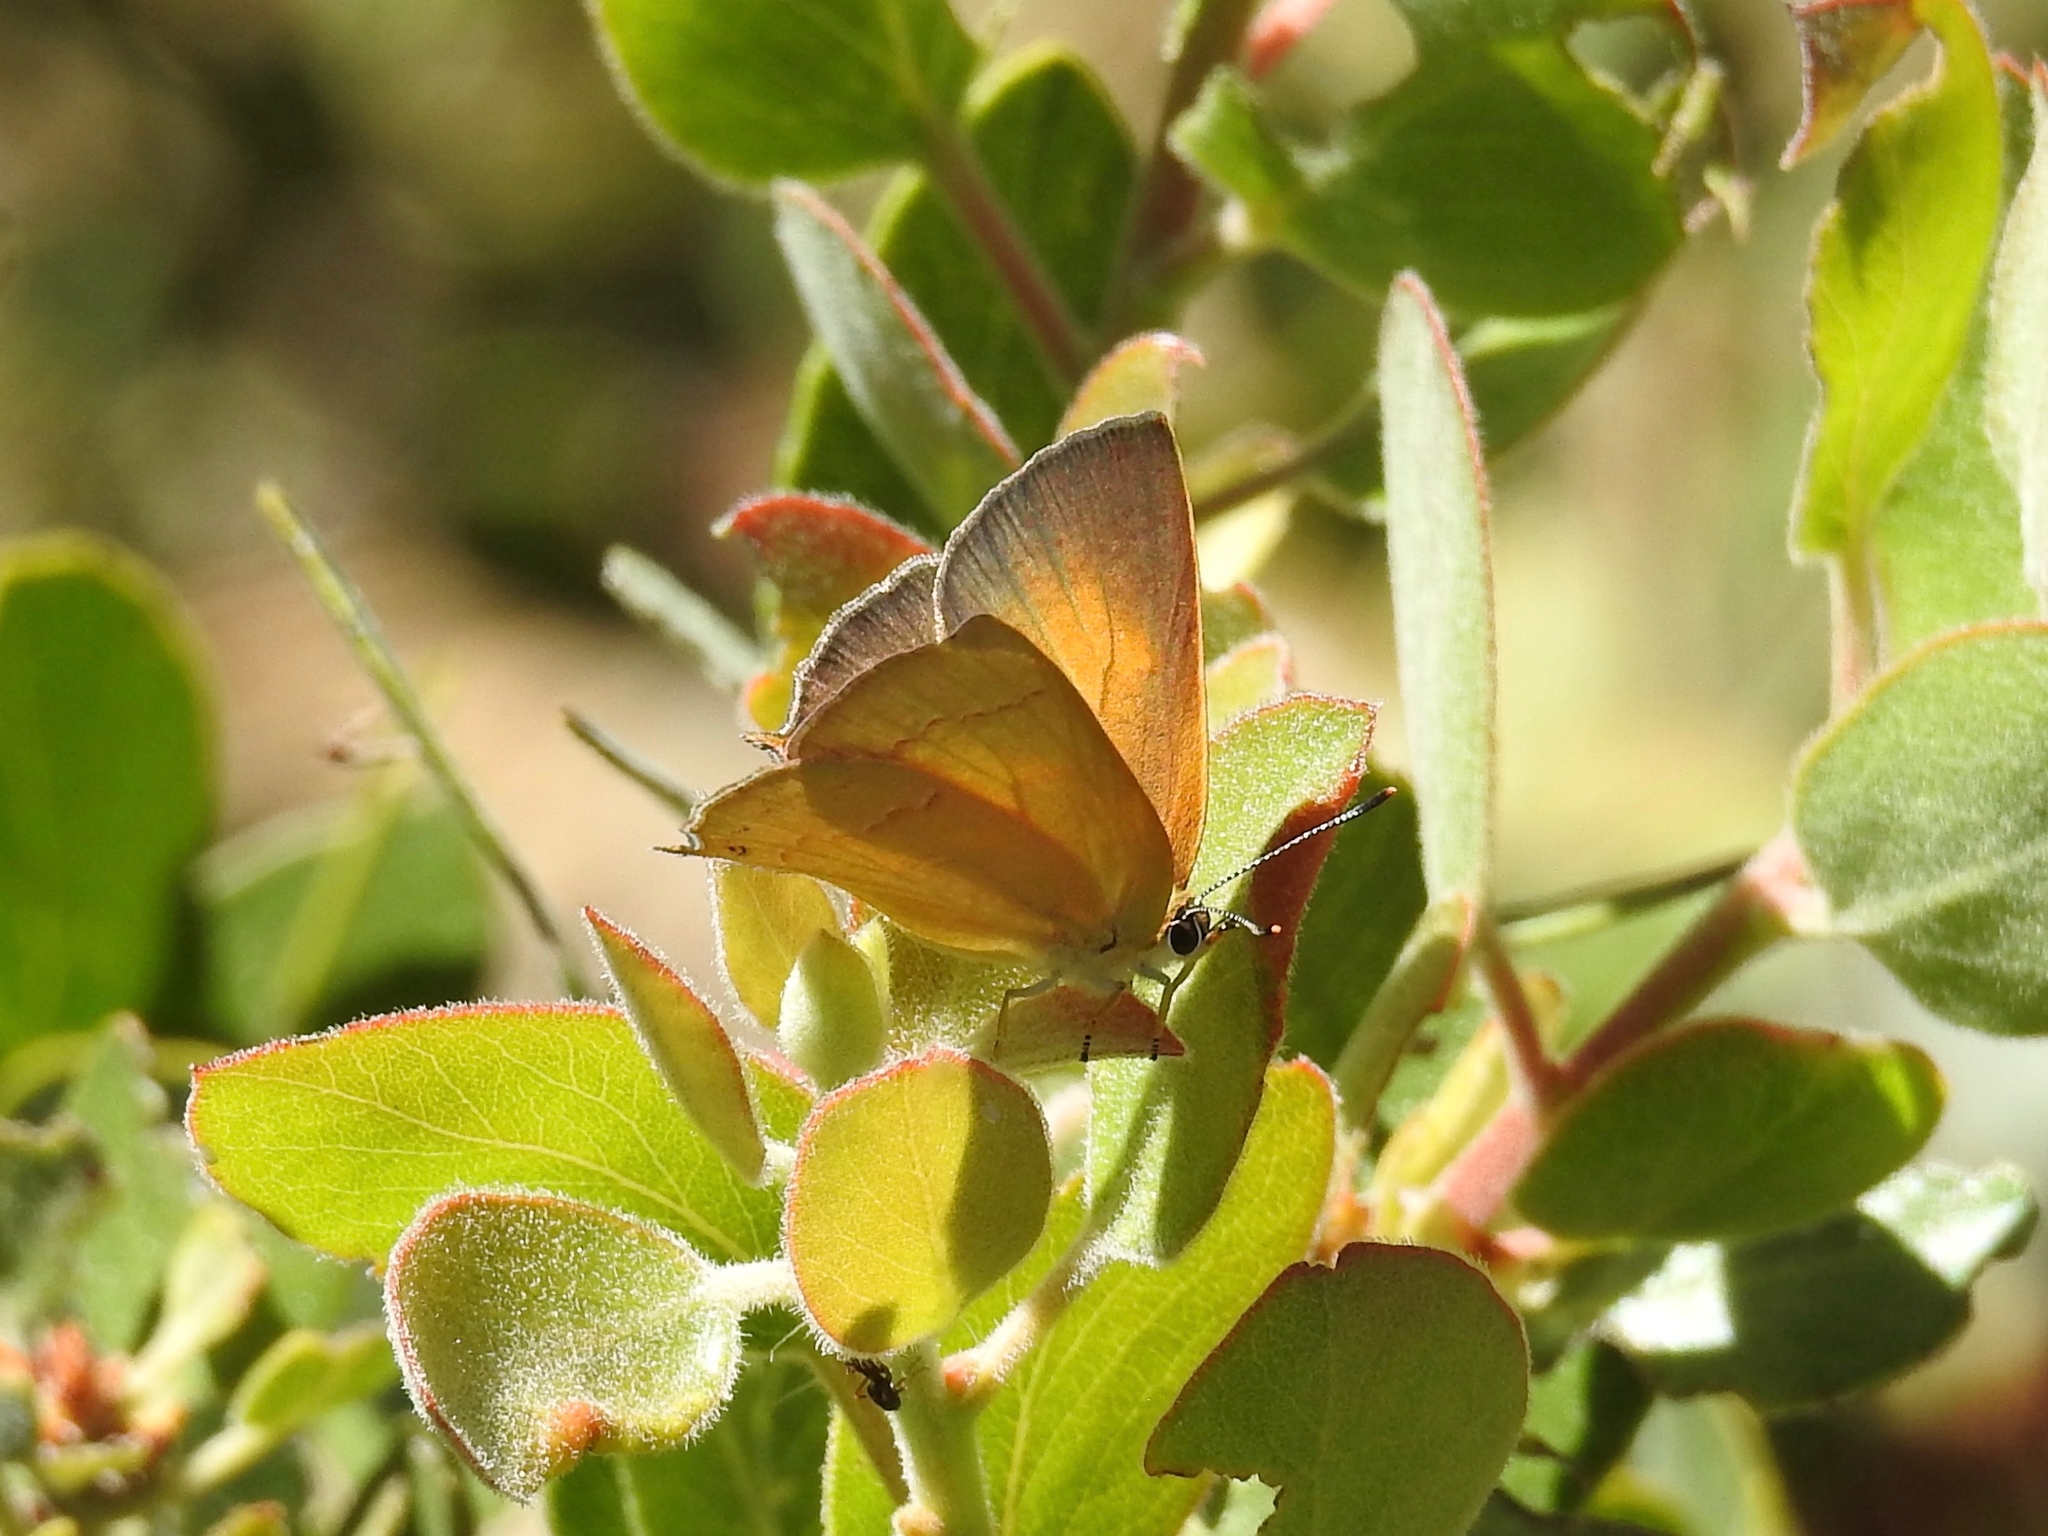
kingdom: Animalia
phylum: Arthropoda
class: Insecta
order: Lepidoptera
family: Lycaenidae
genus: Habrodais
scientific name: Habrodais grunus
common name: Golden hairstreak
